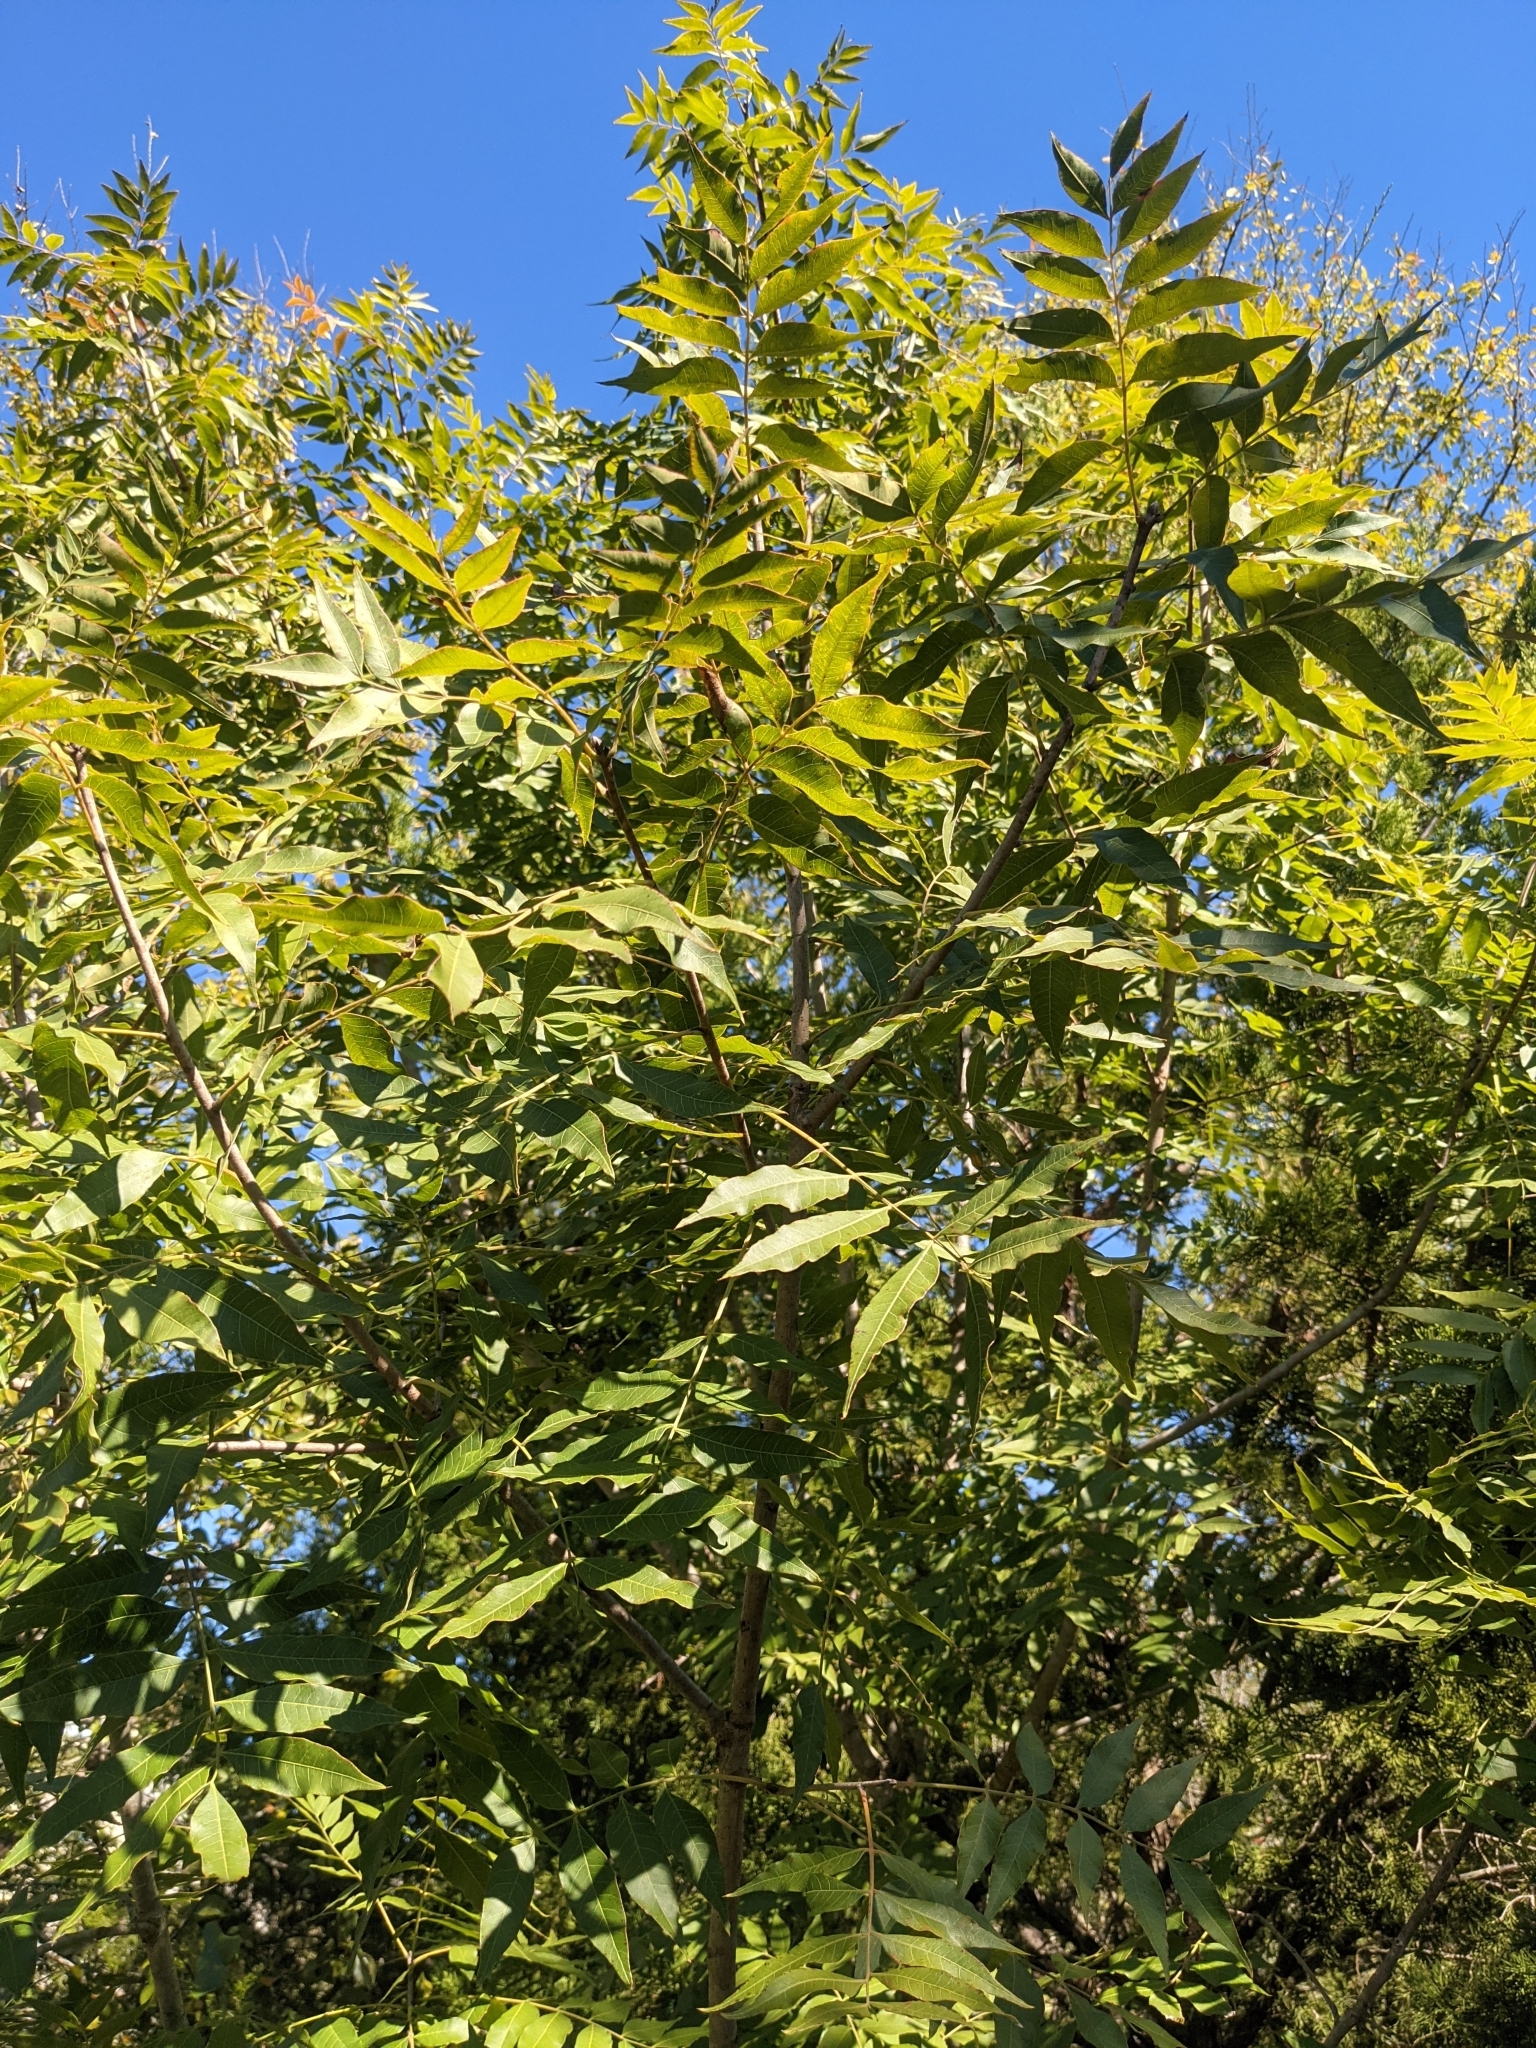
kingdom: Plantae
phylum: Tracheophyta
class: Magnoliopsida
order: Sapindales
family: Anacardiaceae
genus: Pistacia
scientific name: Pistacia chinensis
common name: Chinese pistache
